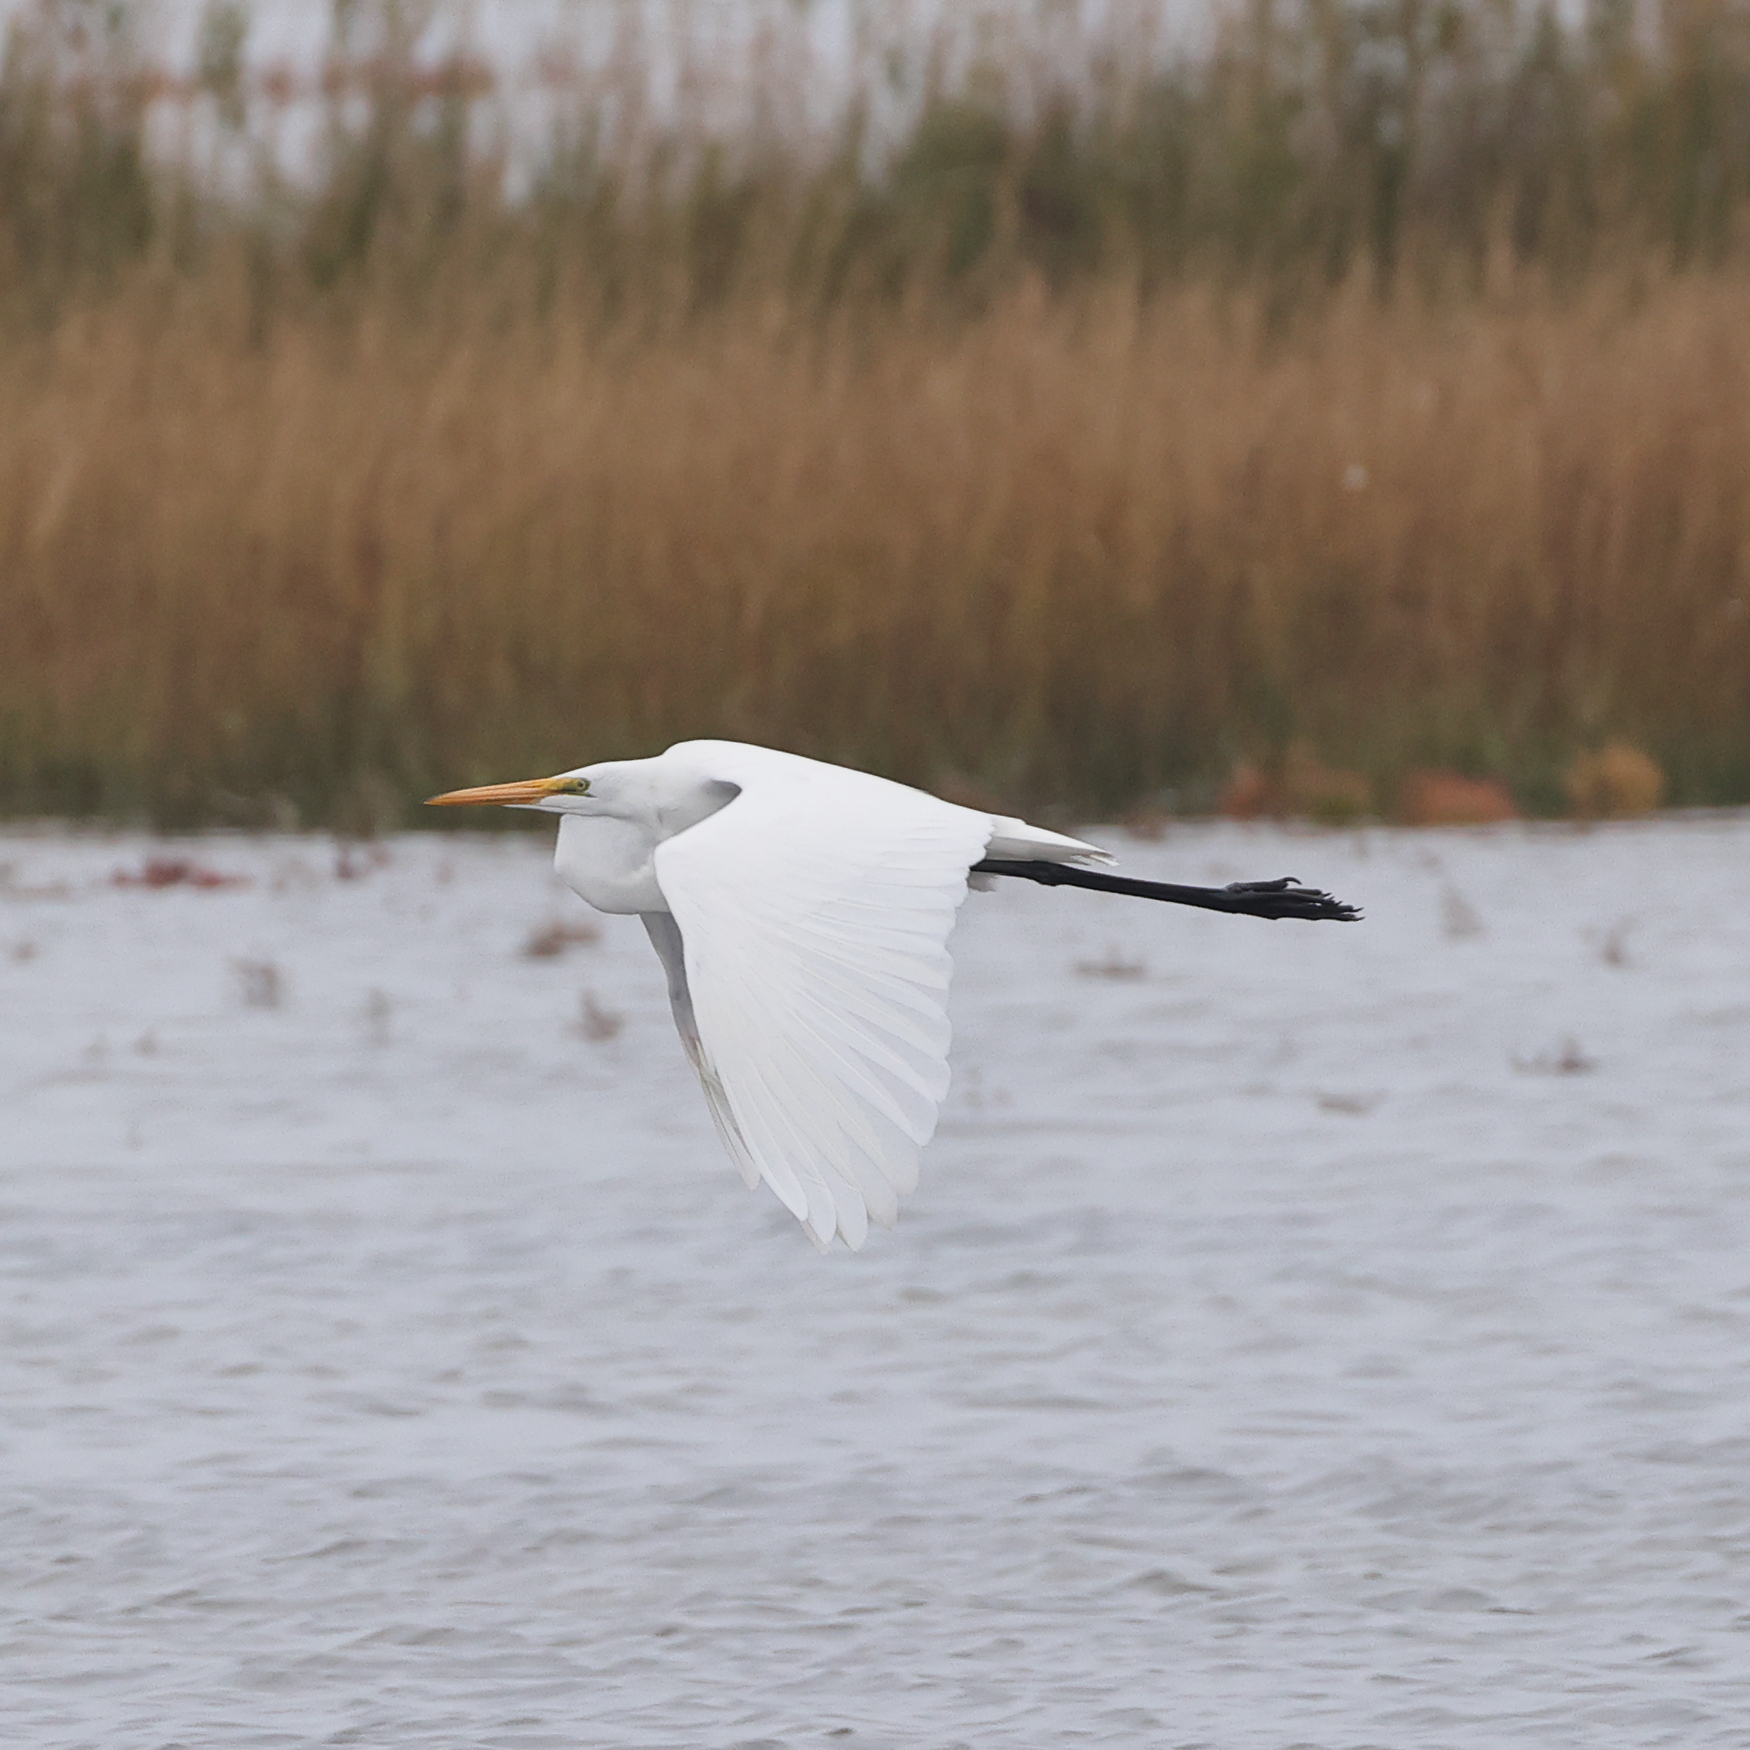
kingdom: Animalia
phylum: Chordata
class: Aves
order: Pelecaniformes
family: Ardeidae
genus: Ardea
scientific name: Ardea alba
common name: Great egret
